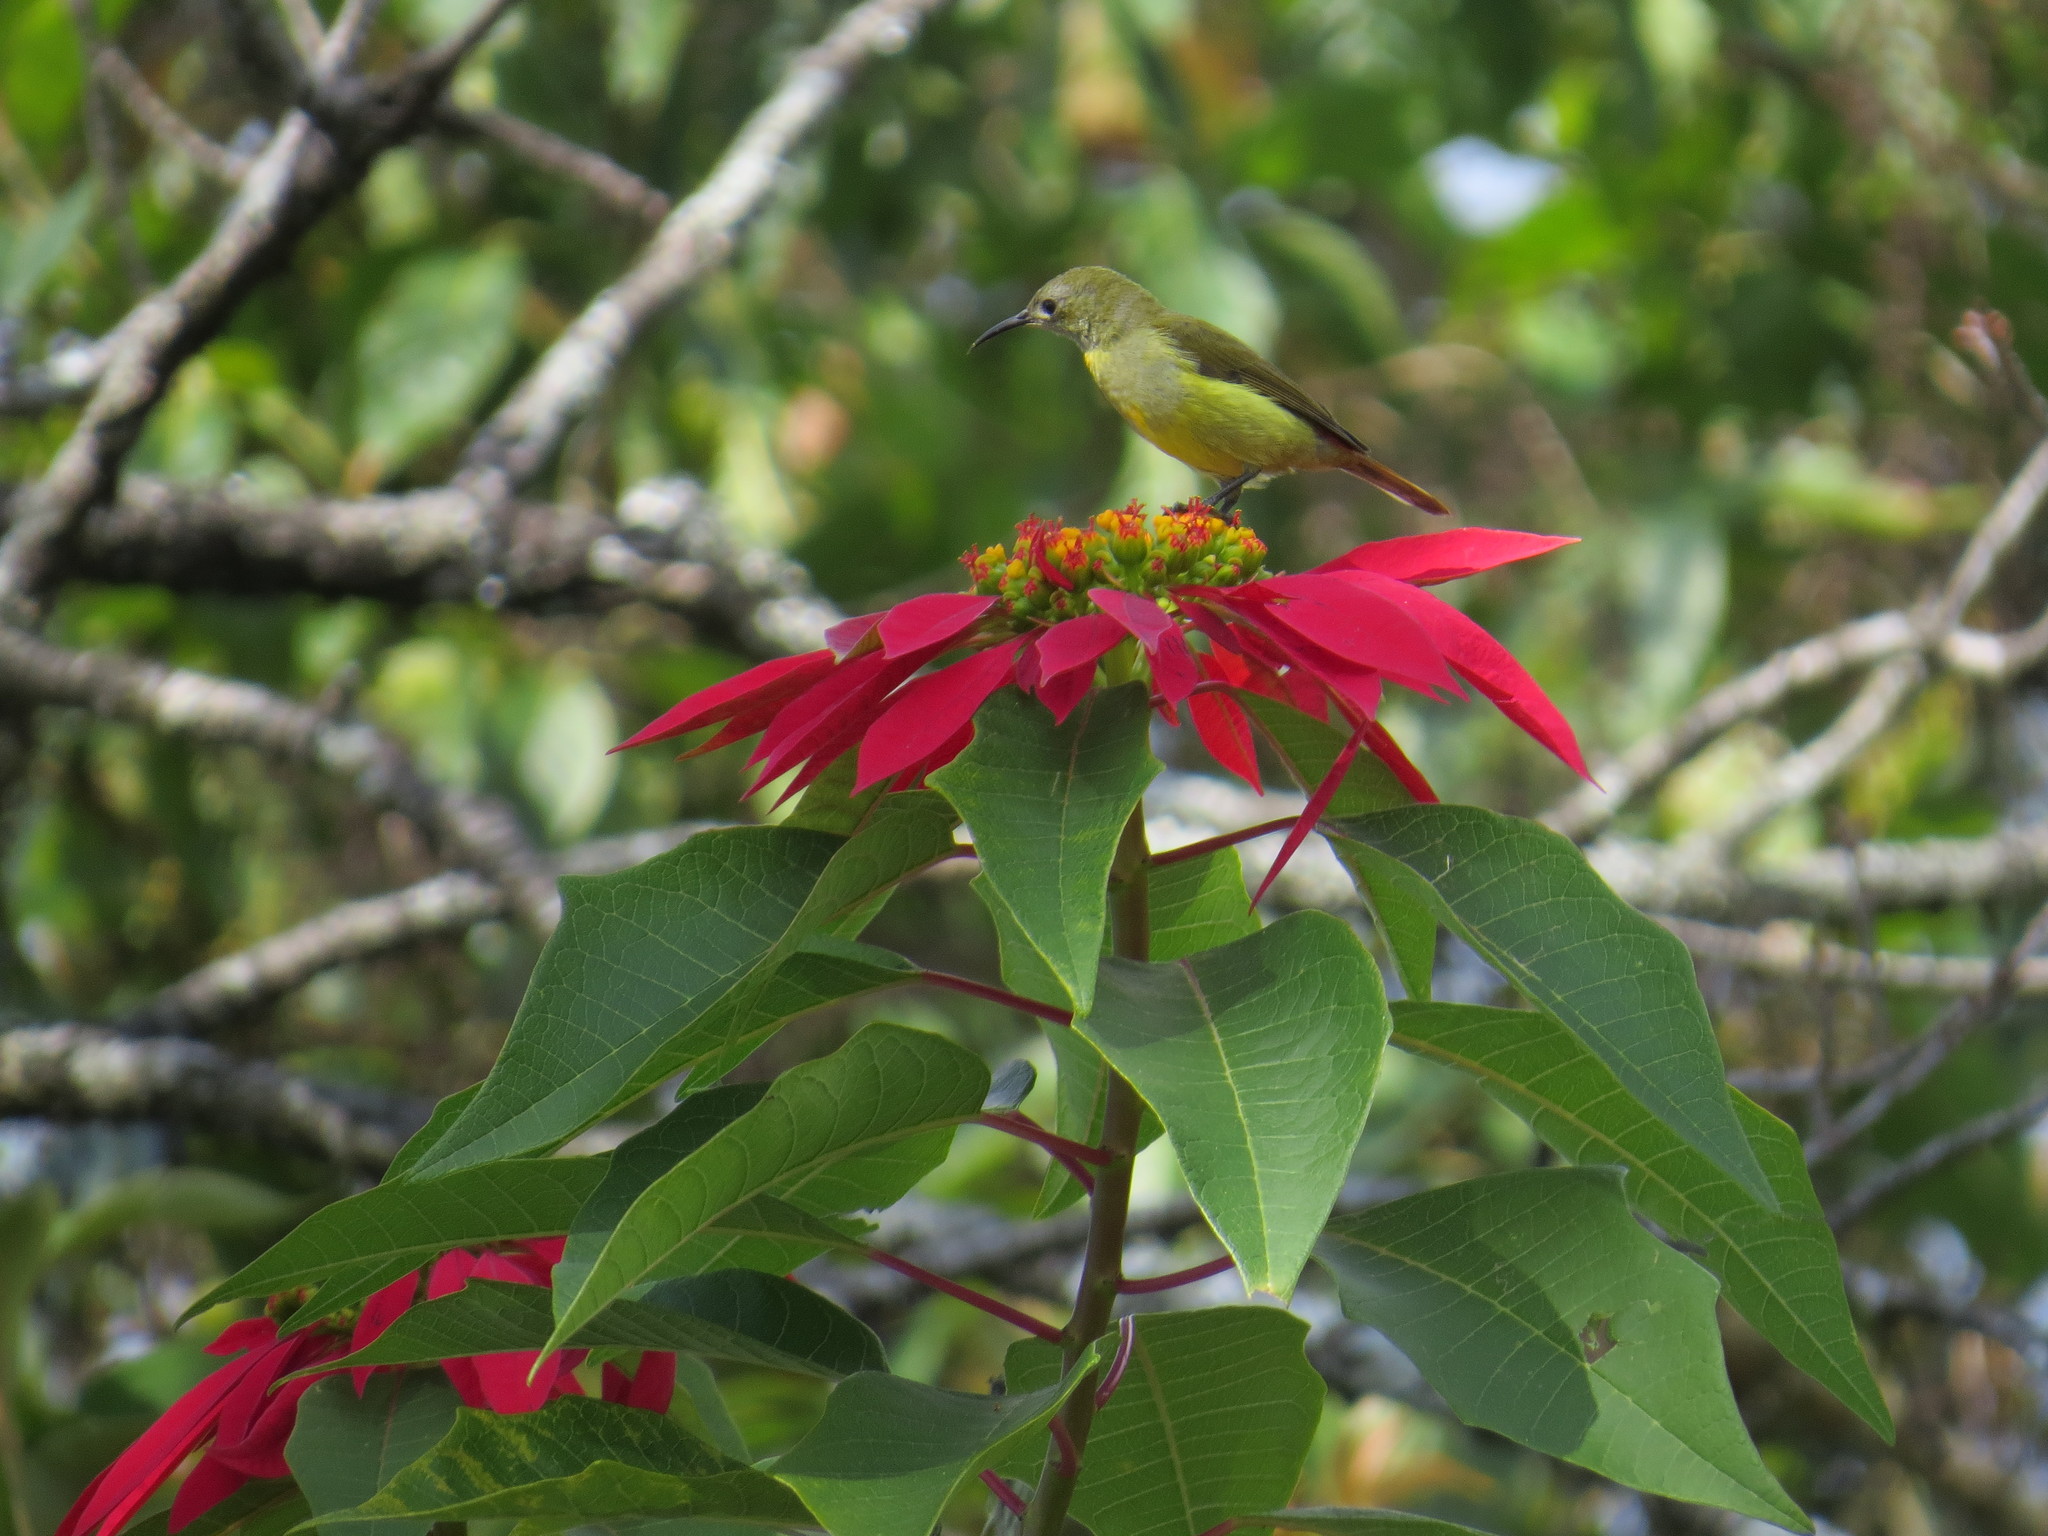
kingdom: Animalia
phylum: Chordata
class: Aves
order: Passeriformes
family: Nectariniidae
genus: Aethopyga
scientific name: Aethopyga ignicauda
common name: Fire-tailed sunbird
